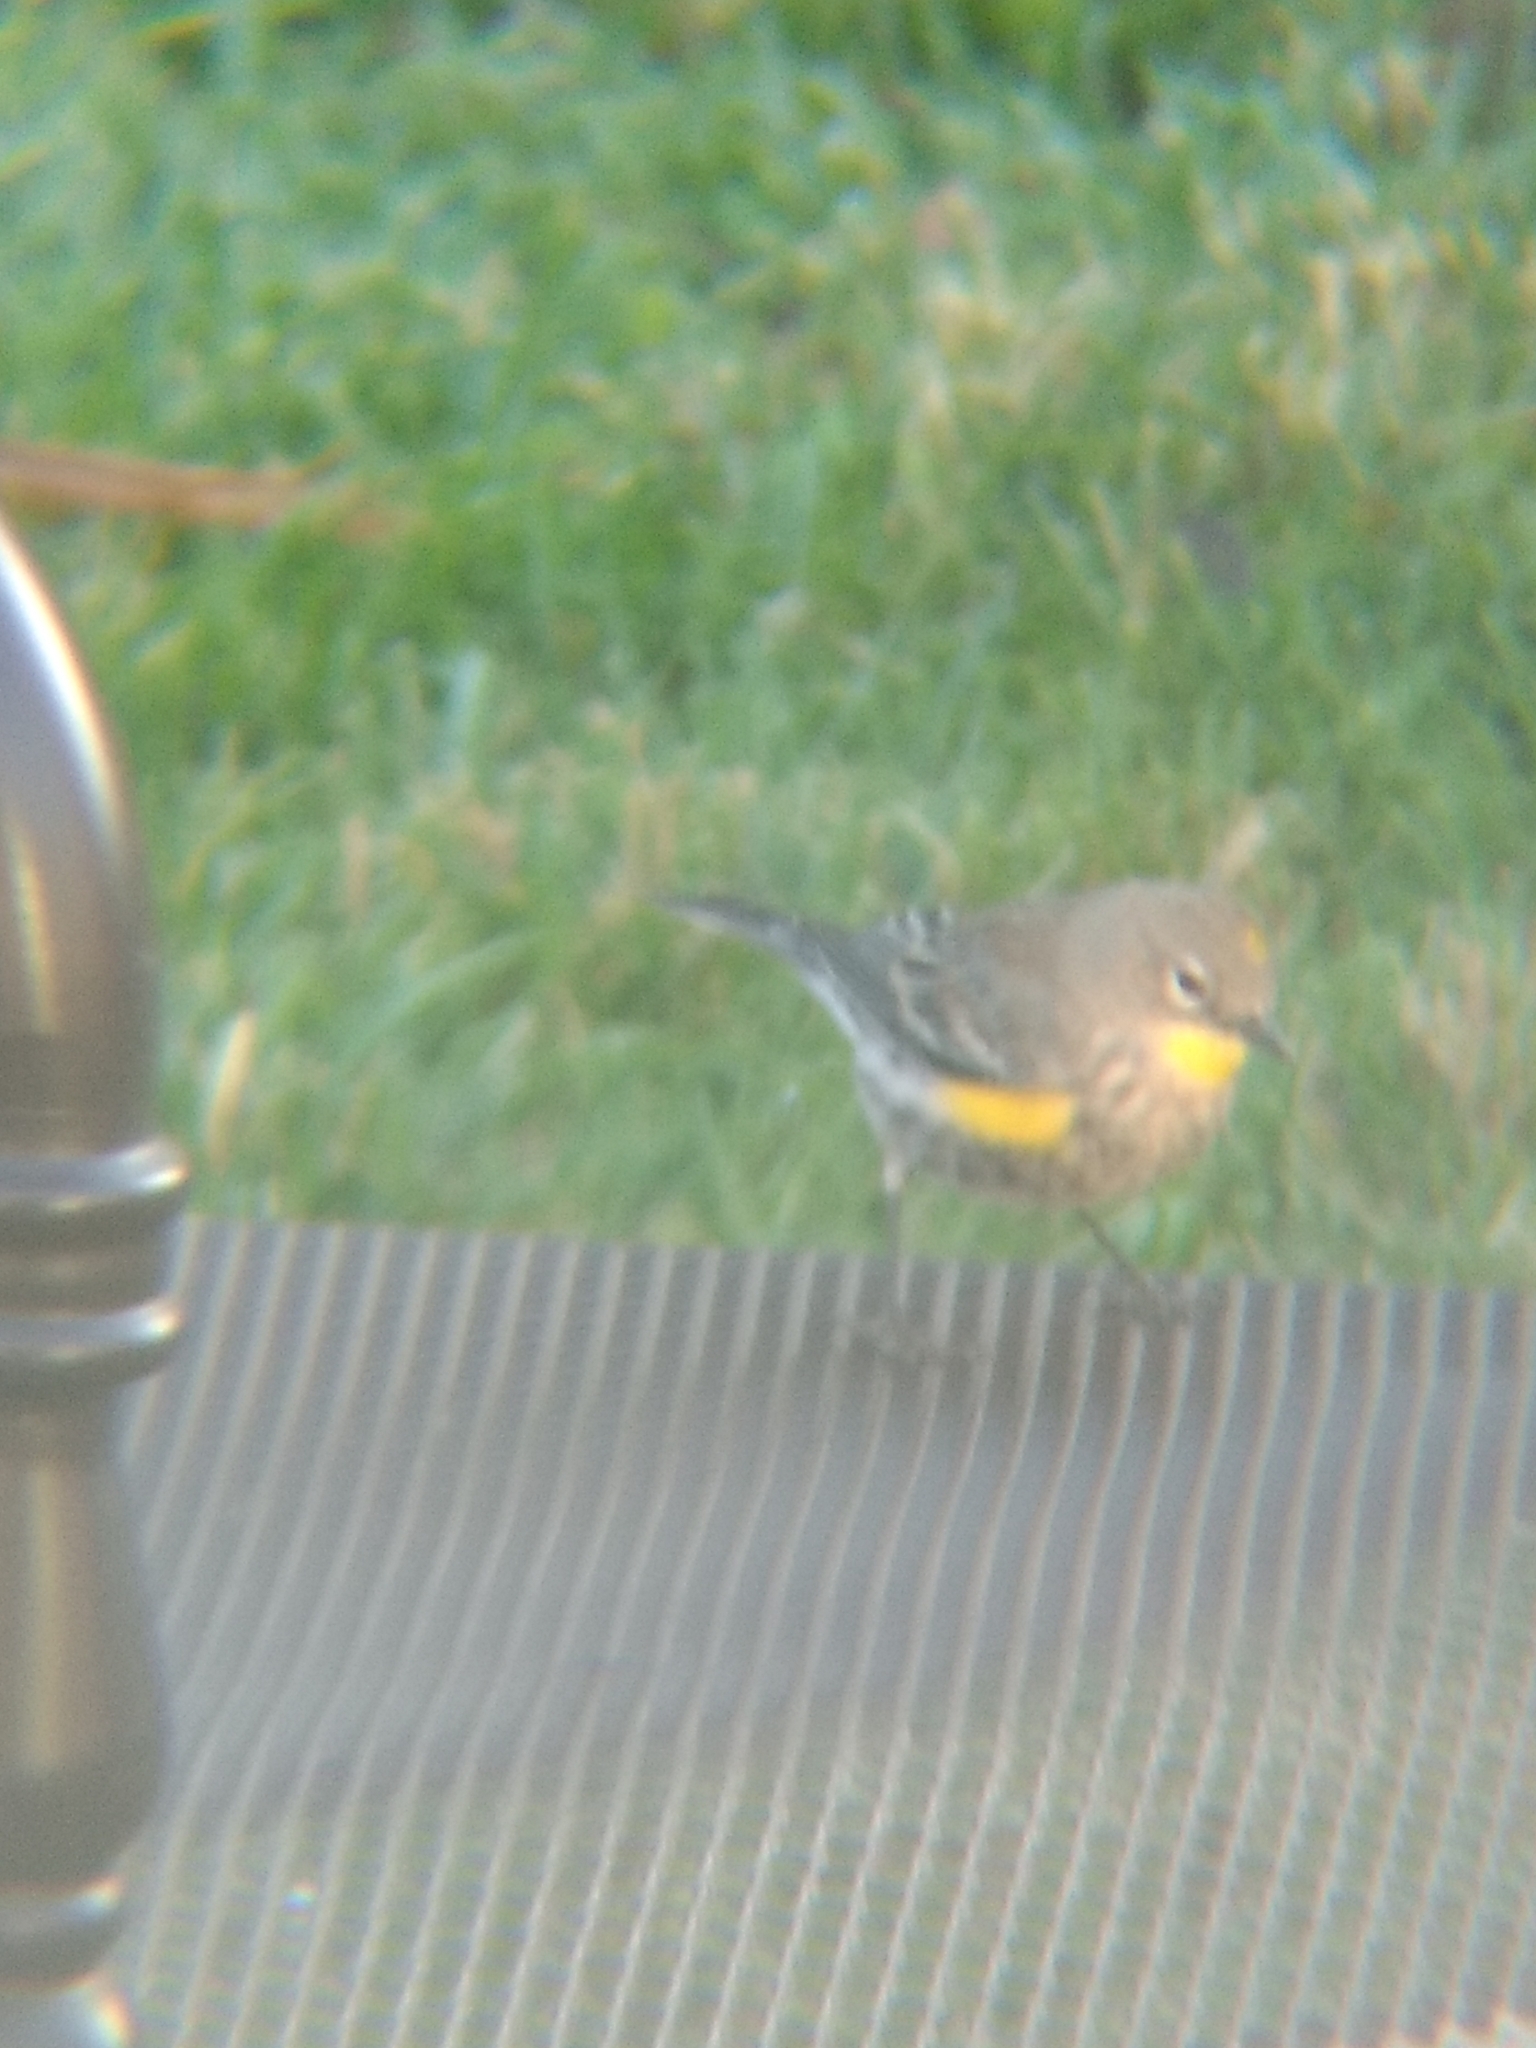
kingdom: Animalia
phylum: Chordata
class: Aves
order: Passeriformes
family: Parulidae
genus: Setophaga
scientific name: Setophaga coronata
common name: Myrtle warbler
